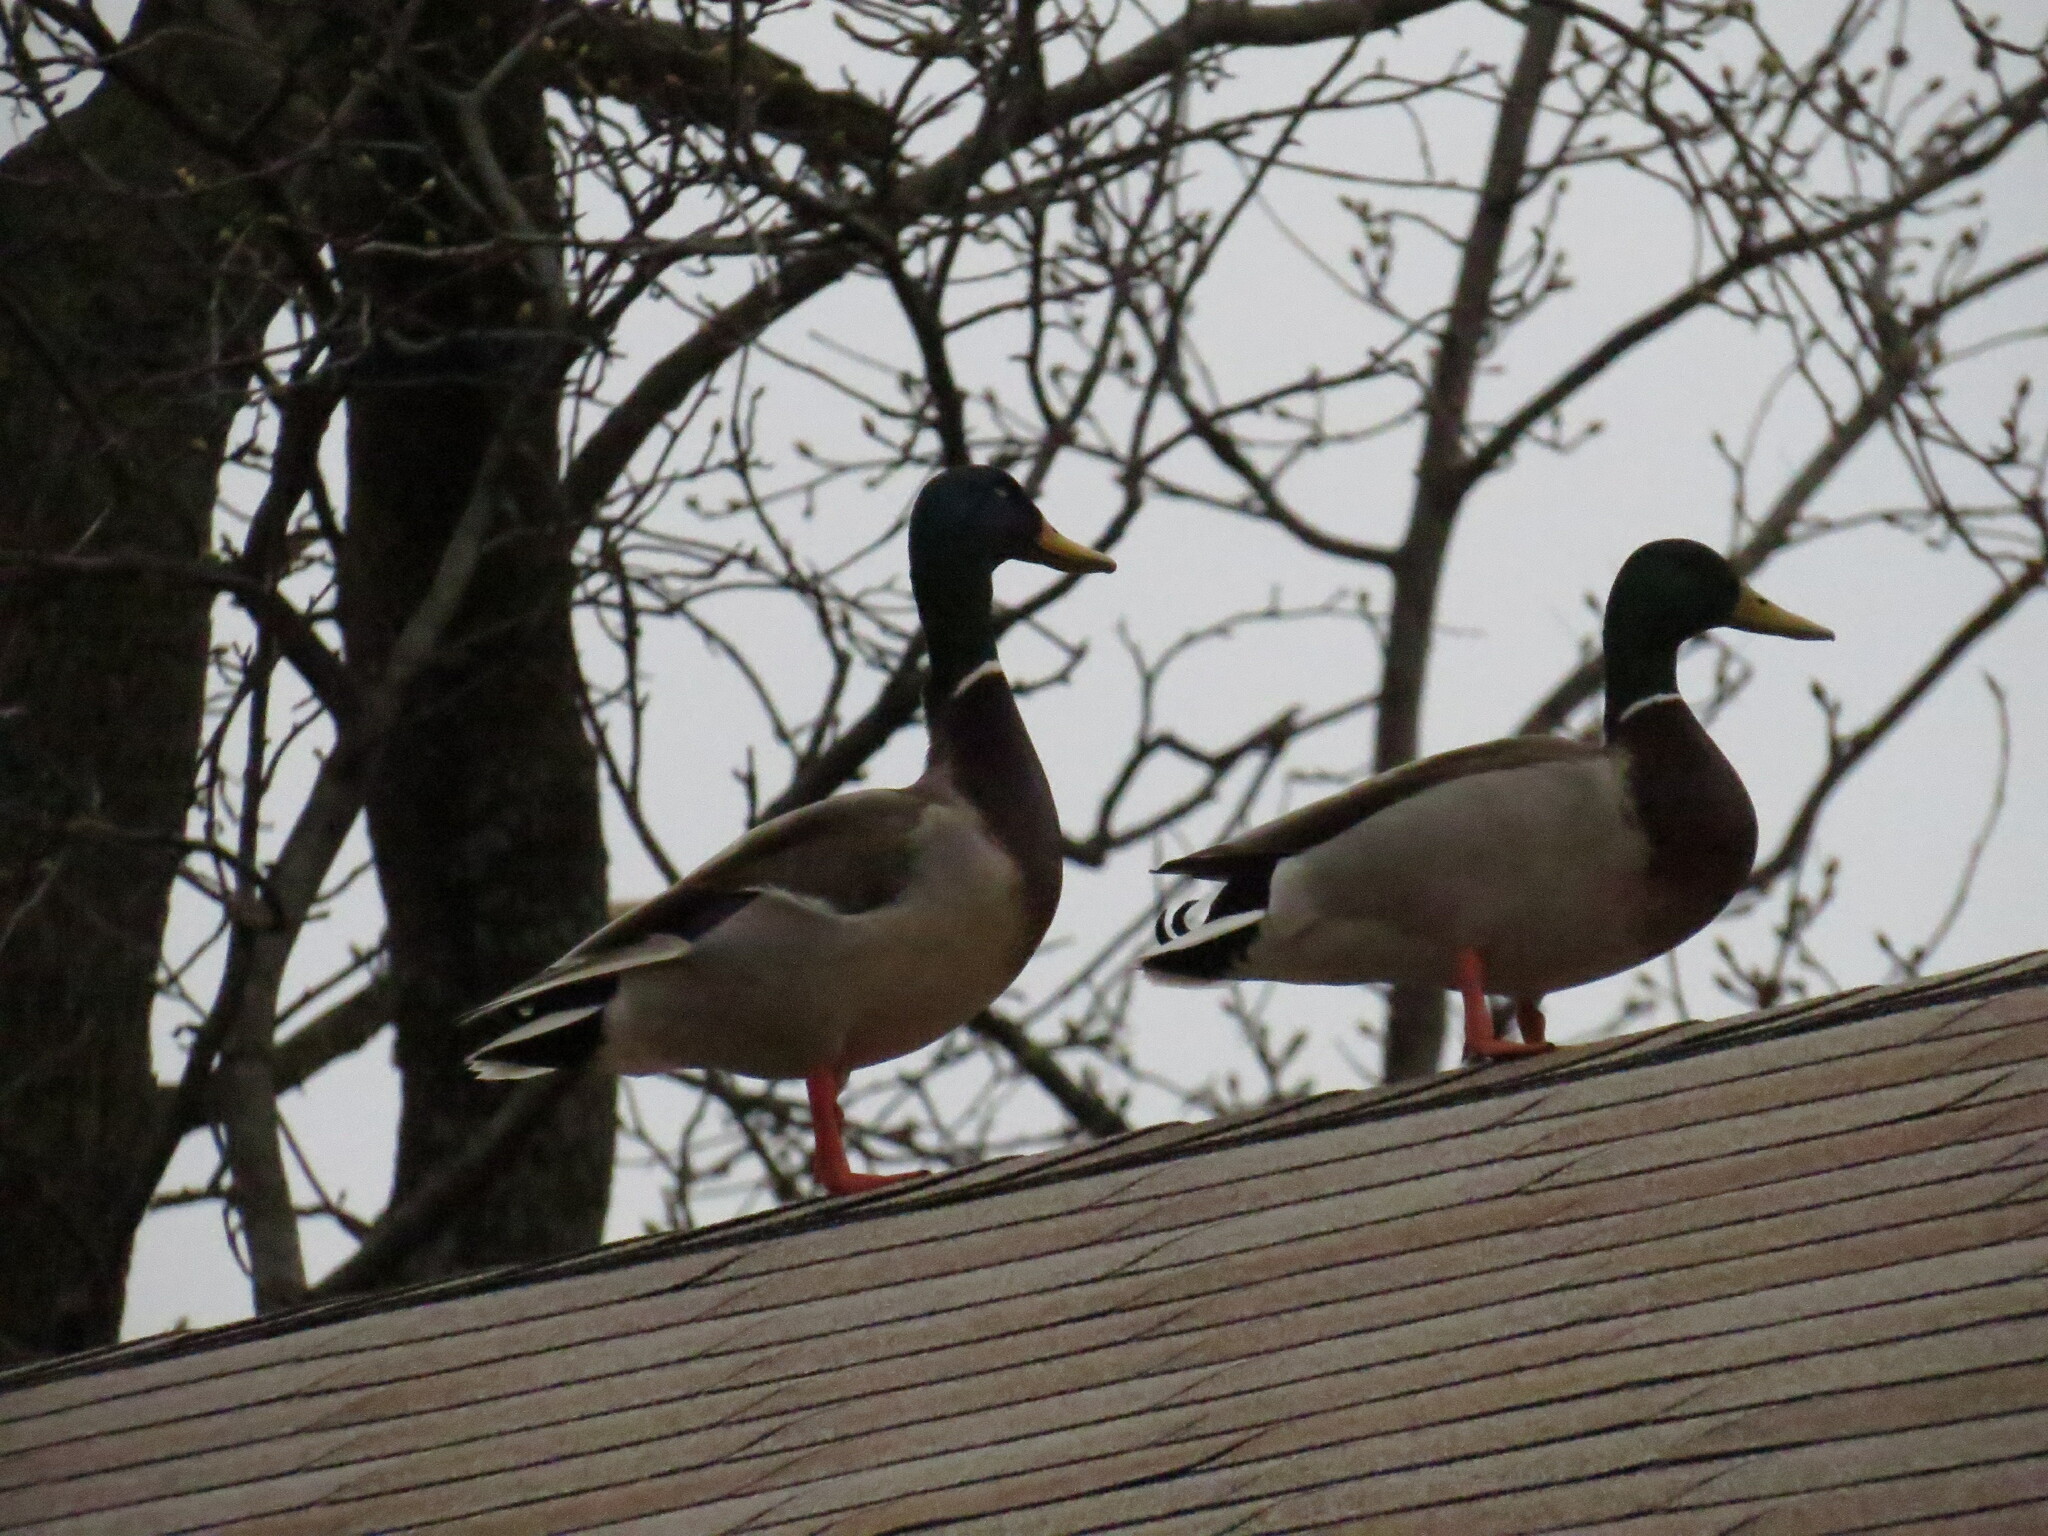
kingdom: Animalia
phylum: Chordata
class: Aves
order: Anseriformes
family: Anatidae
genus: Anas
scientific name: Anas platyrhynchos
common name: Mallard
